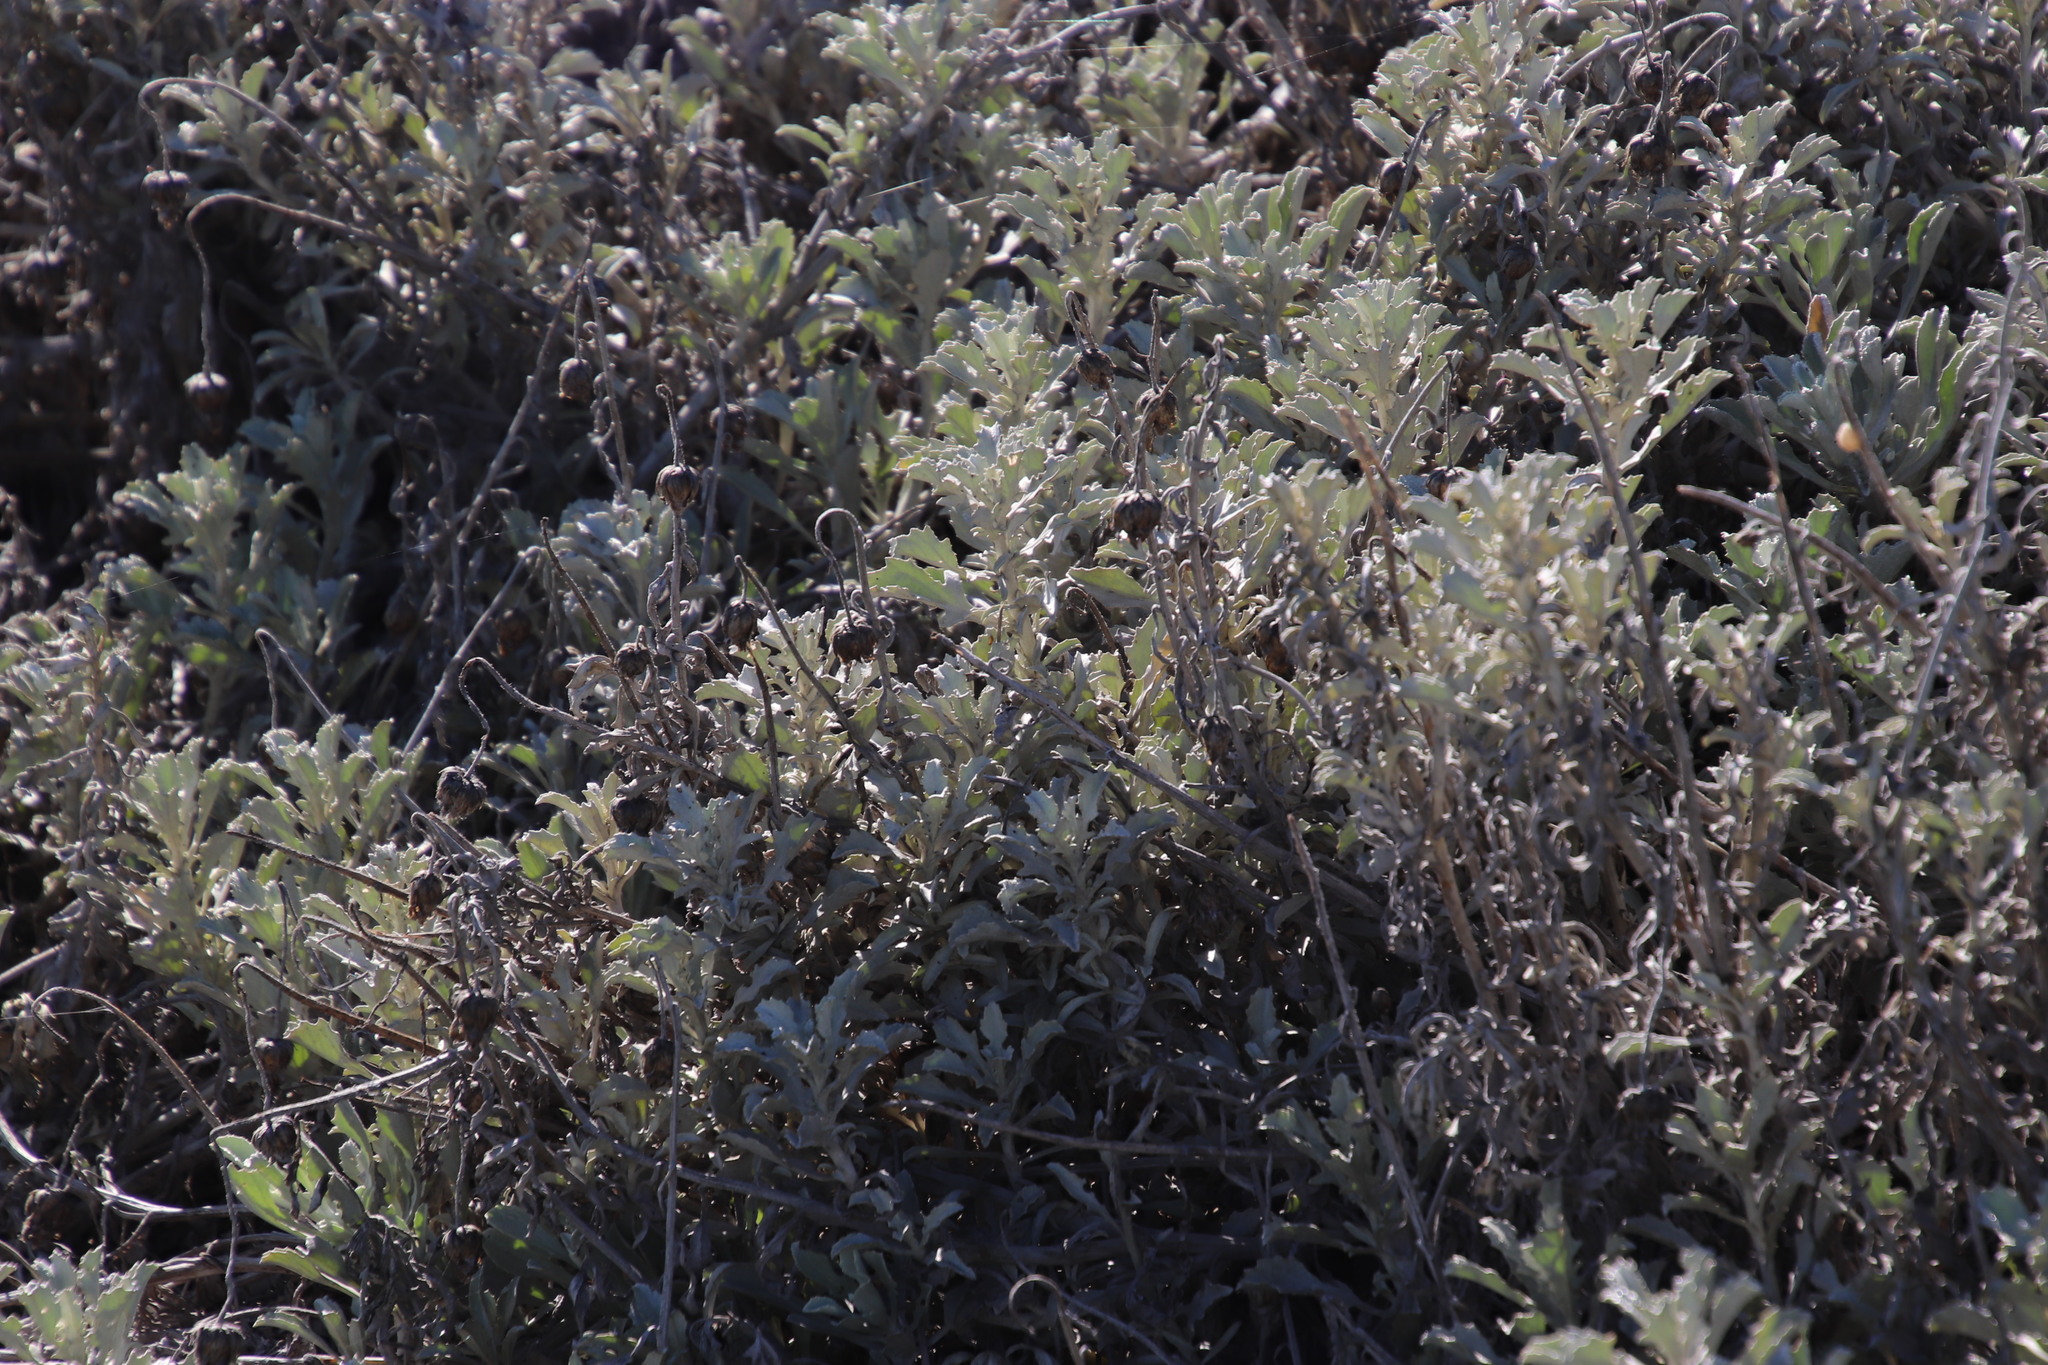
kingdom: Plantae
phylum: Tracheophyta
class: Magnoliopsida
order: Asterales
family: Asteraceae
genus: Arctotis
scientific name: Arctotis stoechadifolia
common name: African daisy
